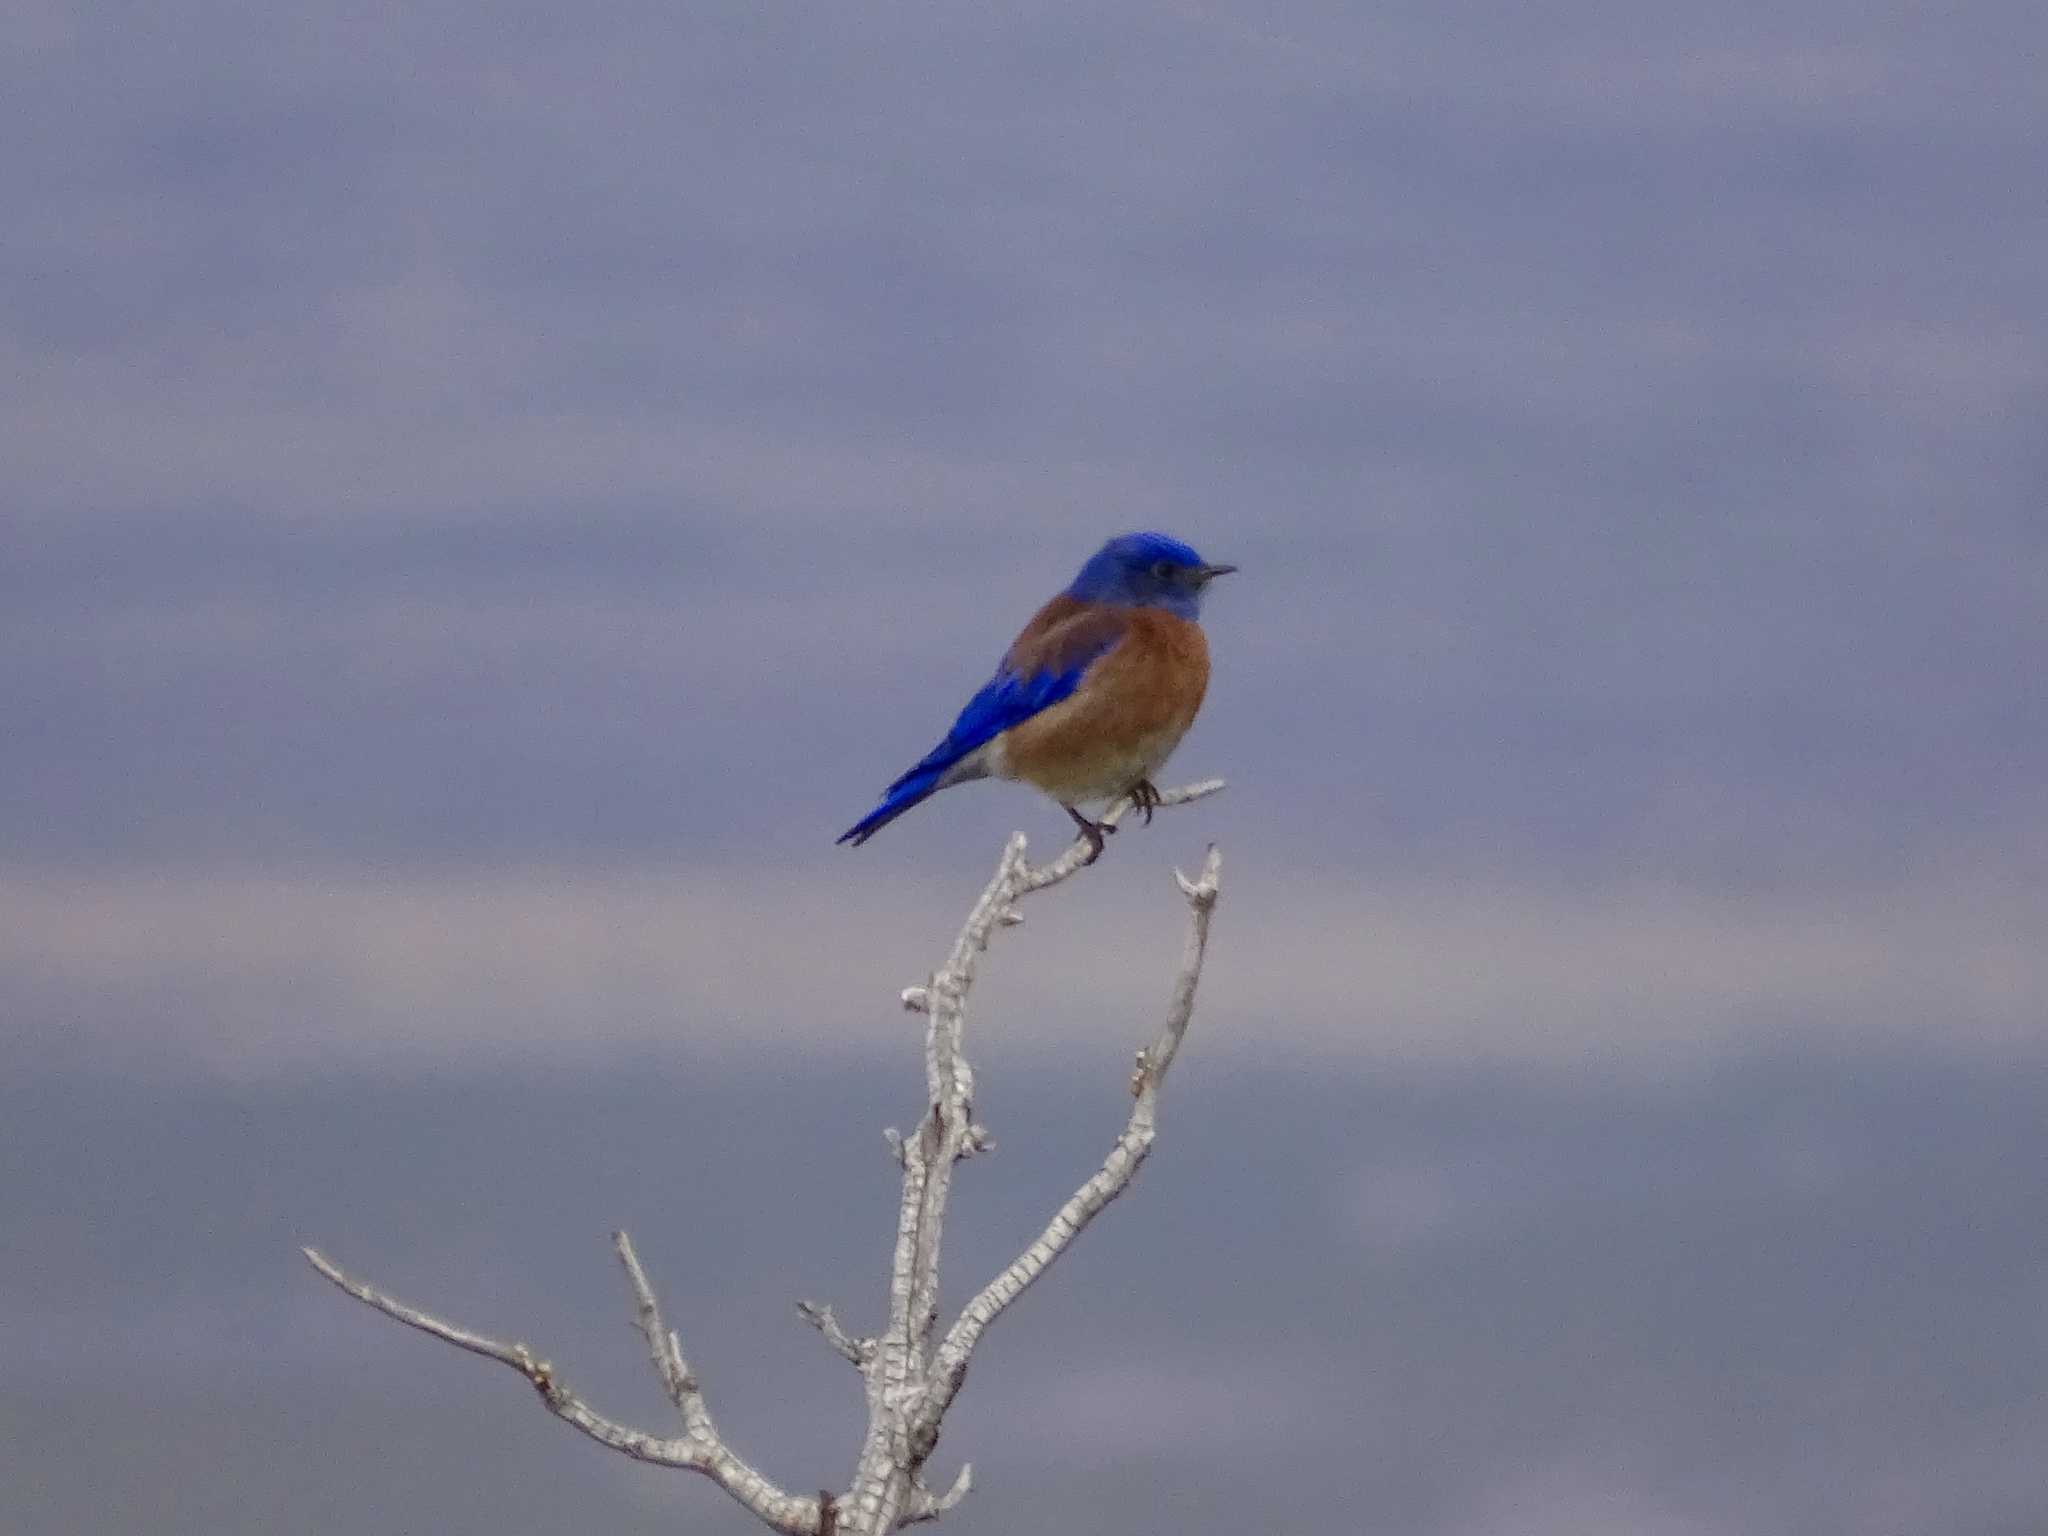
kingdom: Animalia
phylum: Chordata
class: Aves
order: Passeriformes
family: Turdidae
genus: Sialia
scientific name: Sialia mexicana
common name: Western bluebird
